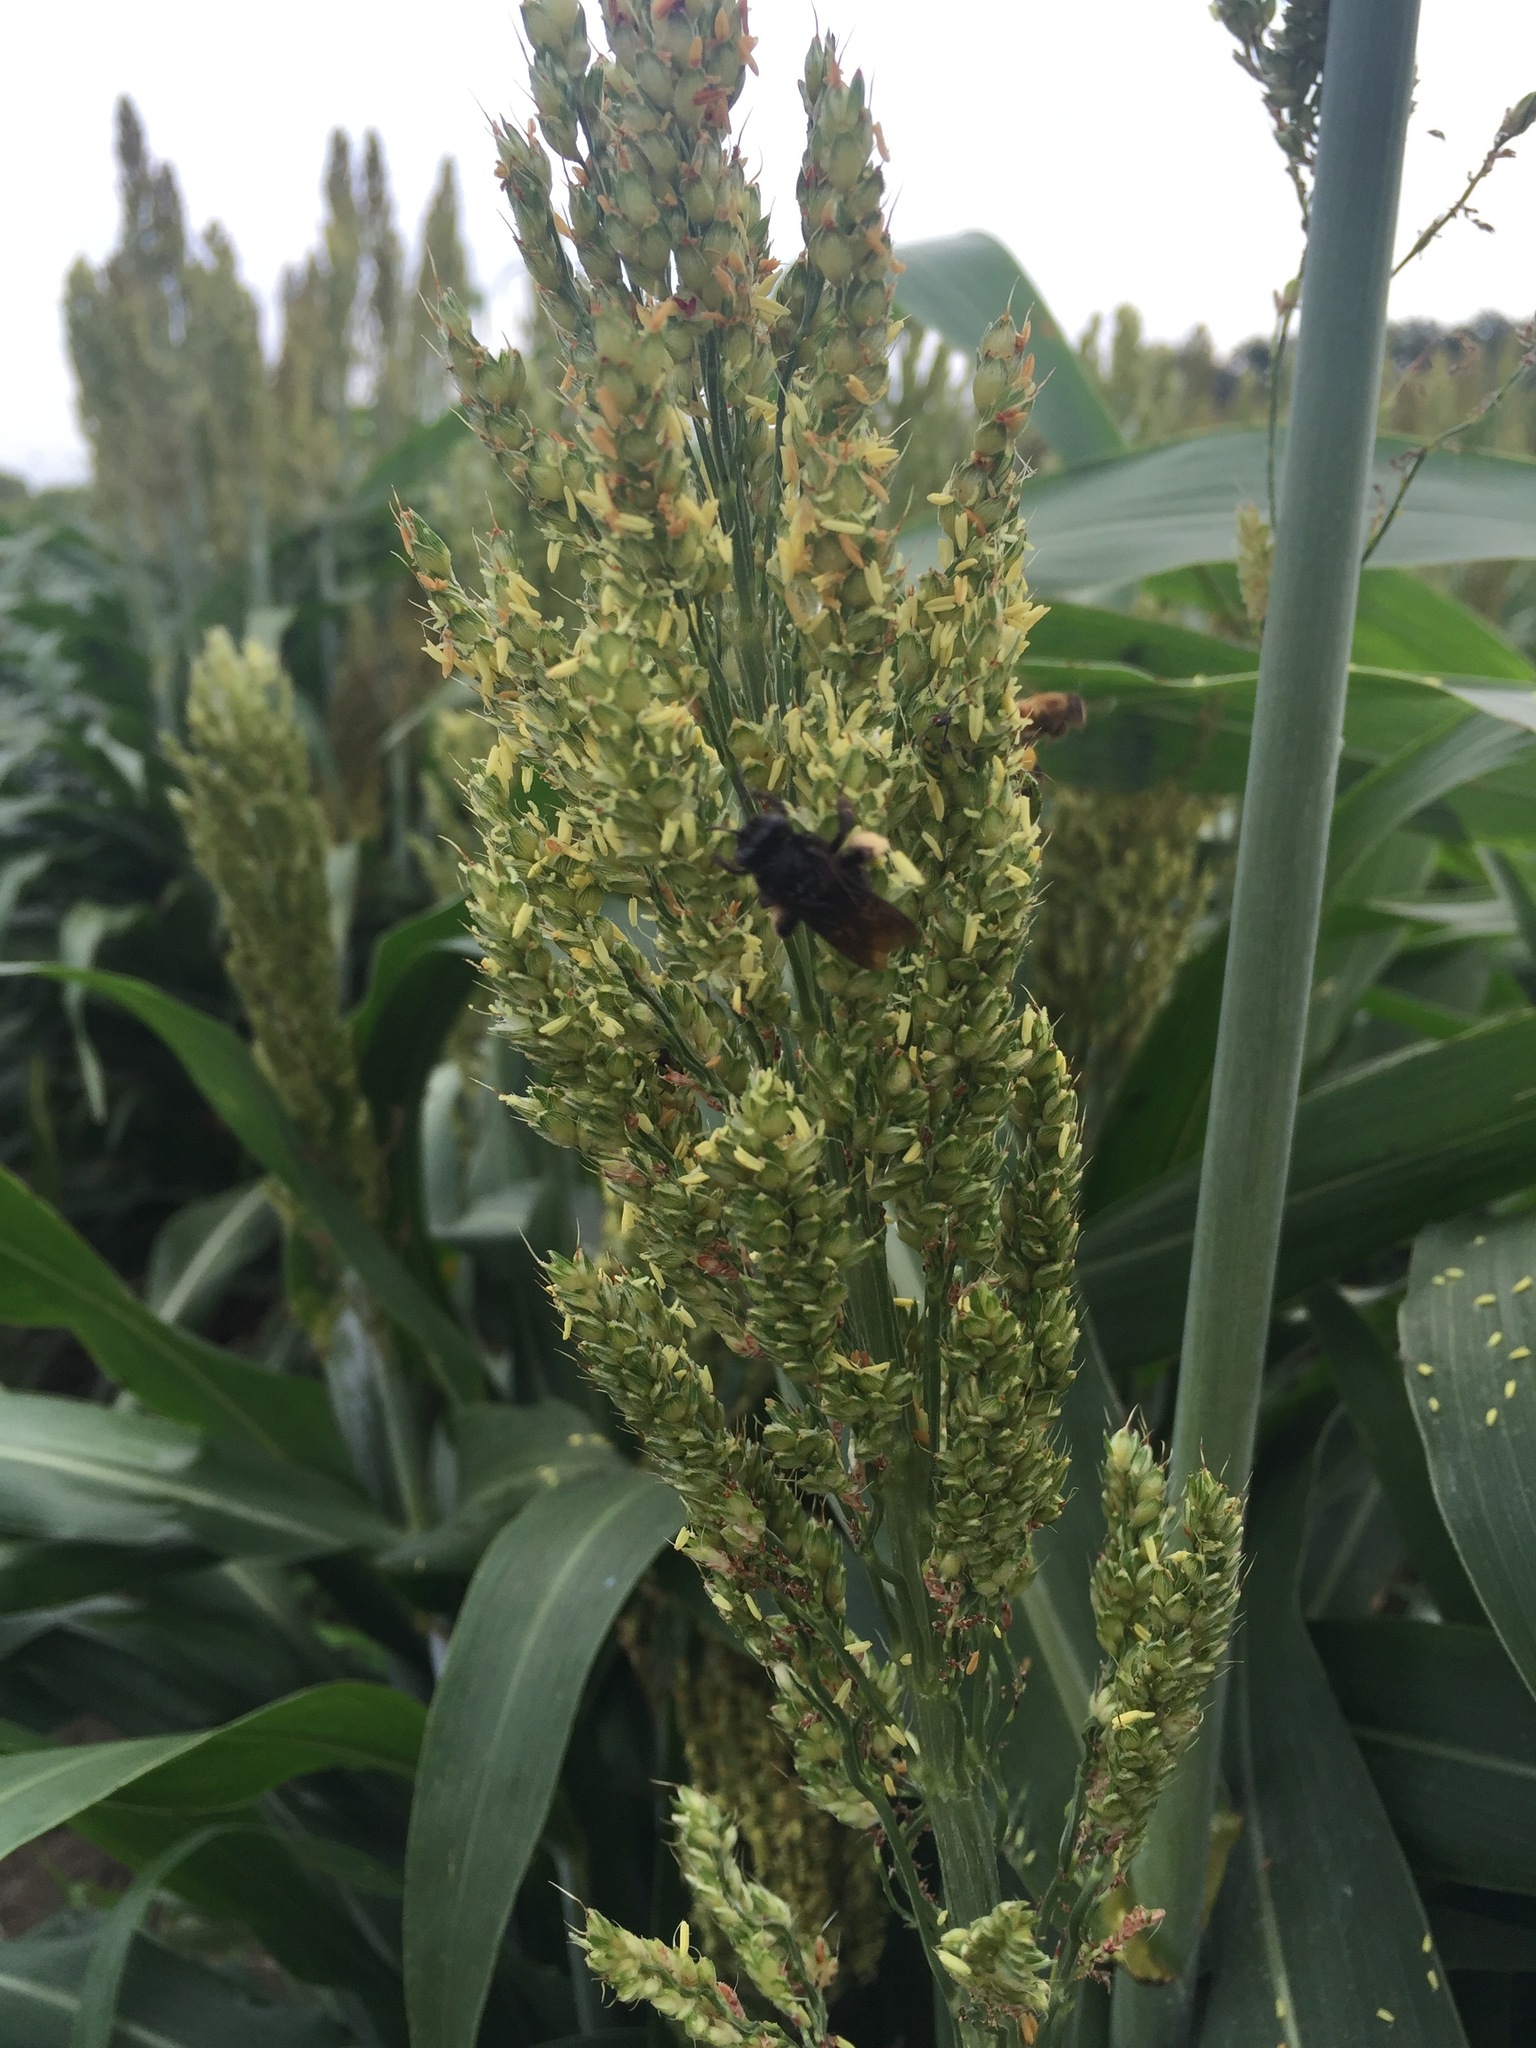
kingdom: Animalia
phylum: Arthropoda
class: Insecta
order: Hymenoptera
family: Apidae
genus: Melissodes
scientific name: Melissodes bimaculatus
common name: Two-spotted long-horned bee
